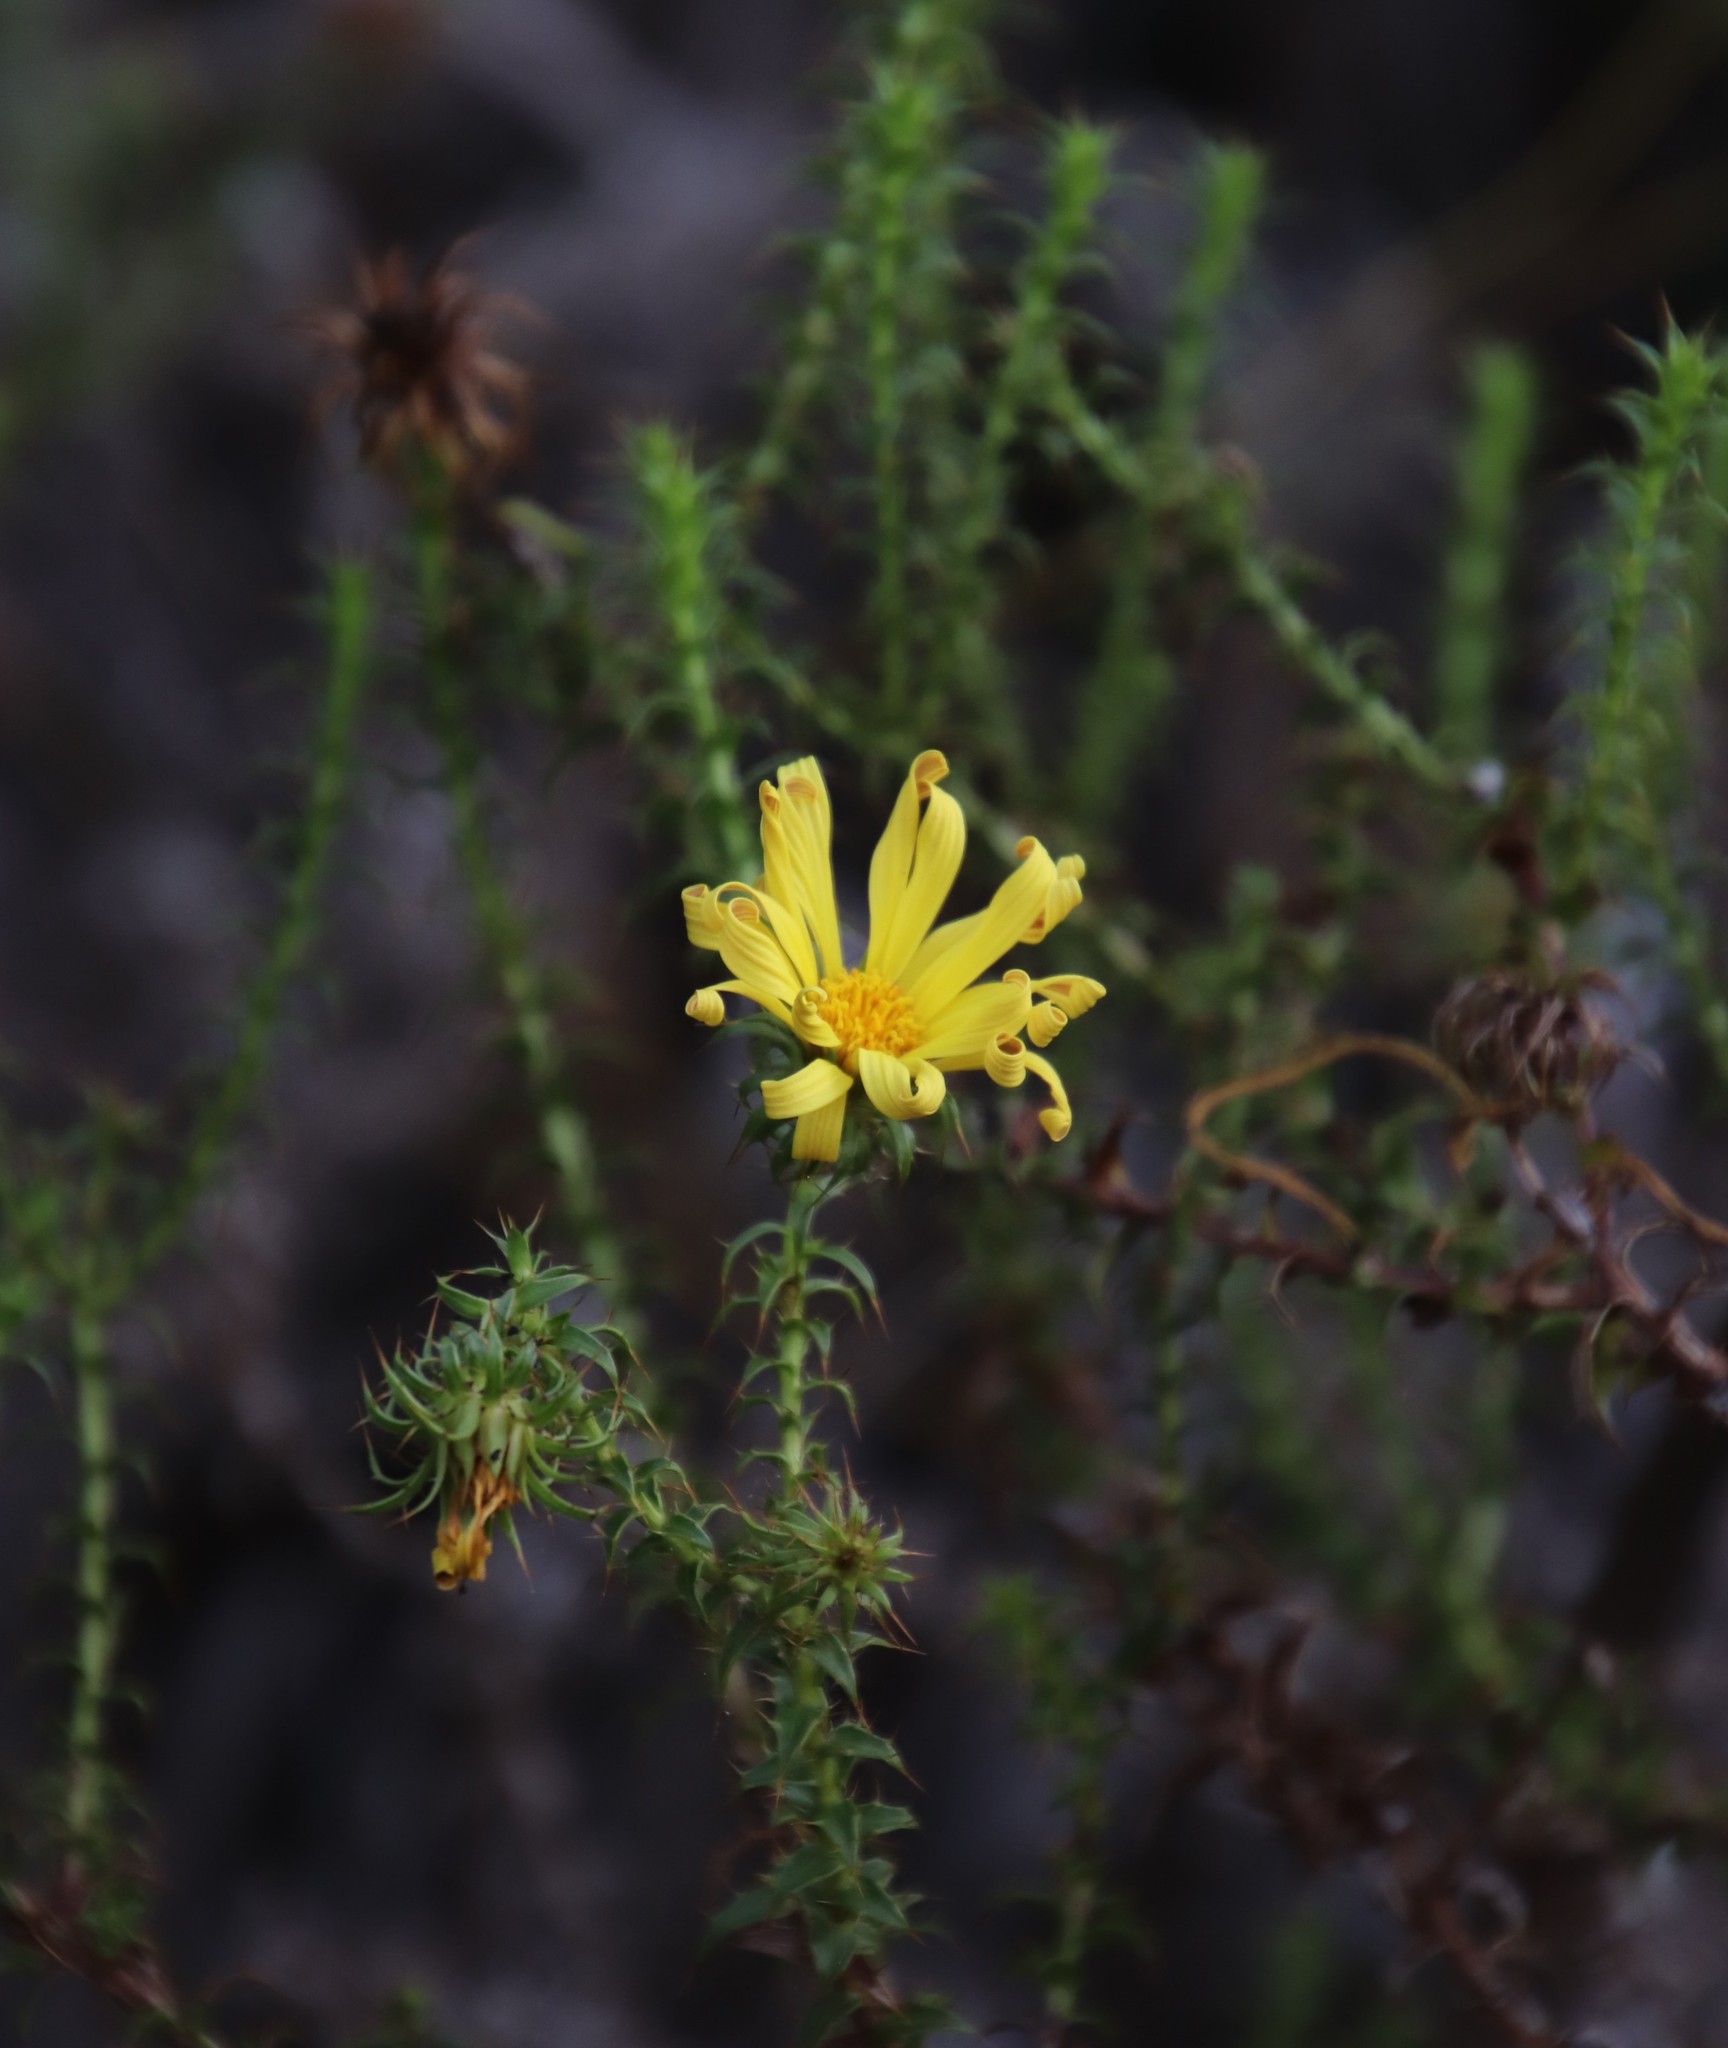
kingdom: Plantae
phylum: Tracheophyta
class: Magnoliopsida
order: Asterales
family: Asteraceae
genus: Cullumia
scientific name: Cullumia setosa
